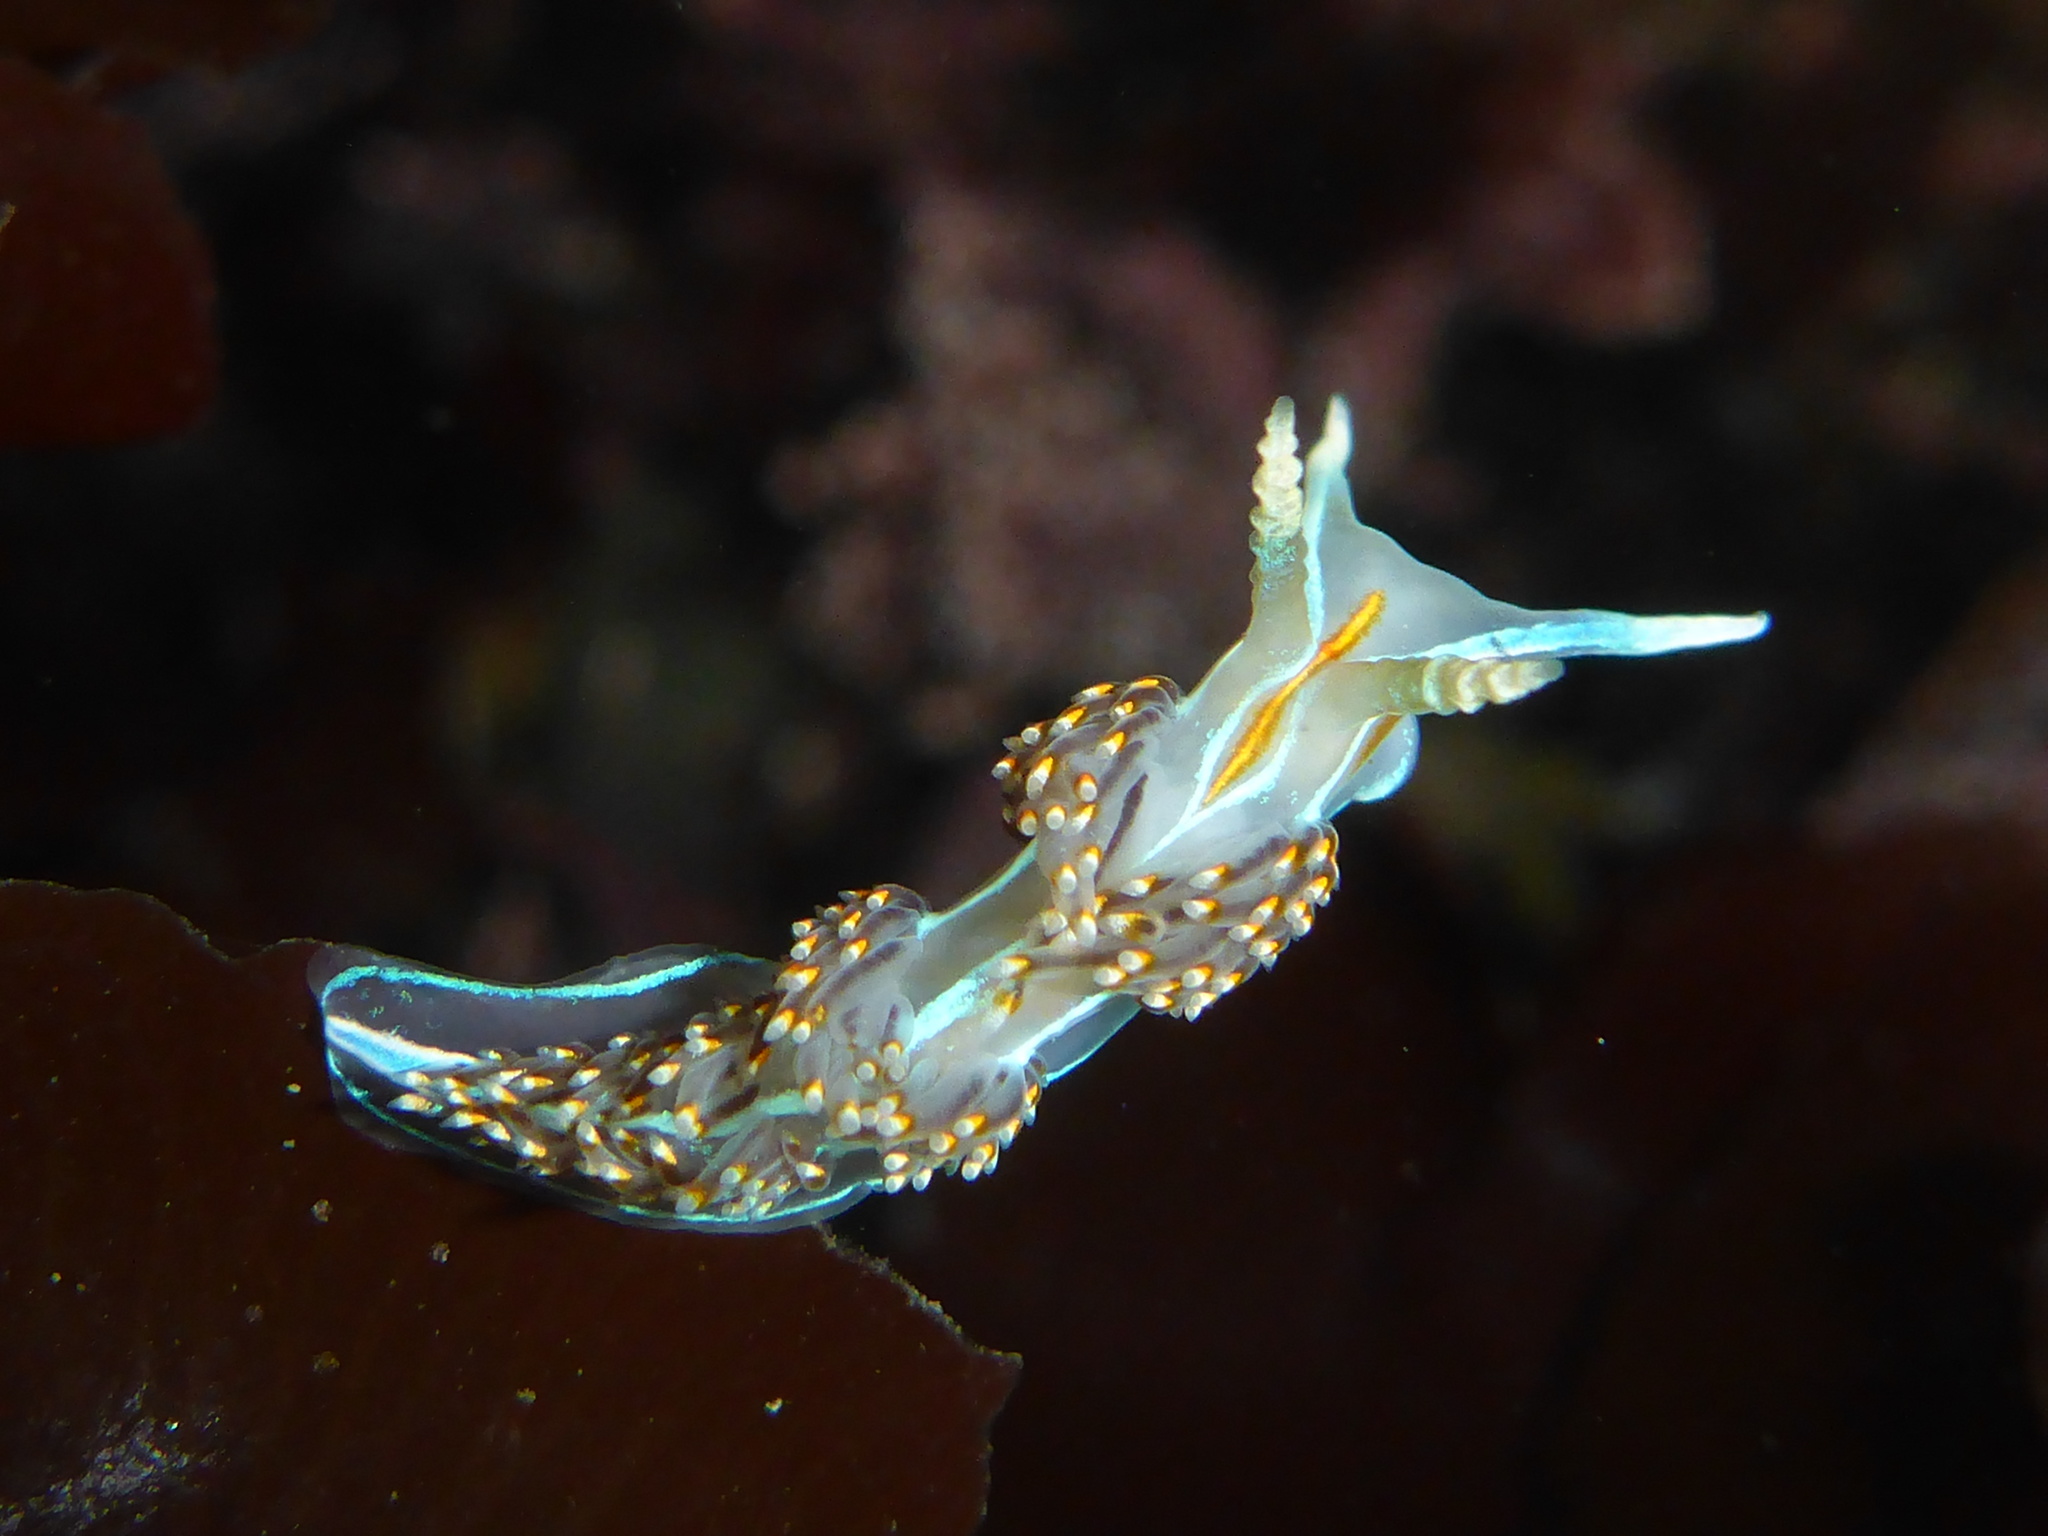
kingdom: Animalia
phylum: Mollusca
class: Gastropoda
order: Nudibranchia
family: Myrrhinidae
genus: Hermissenda
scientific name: Hermissenda opalescens
